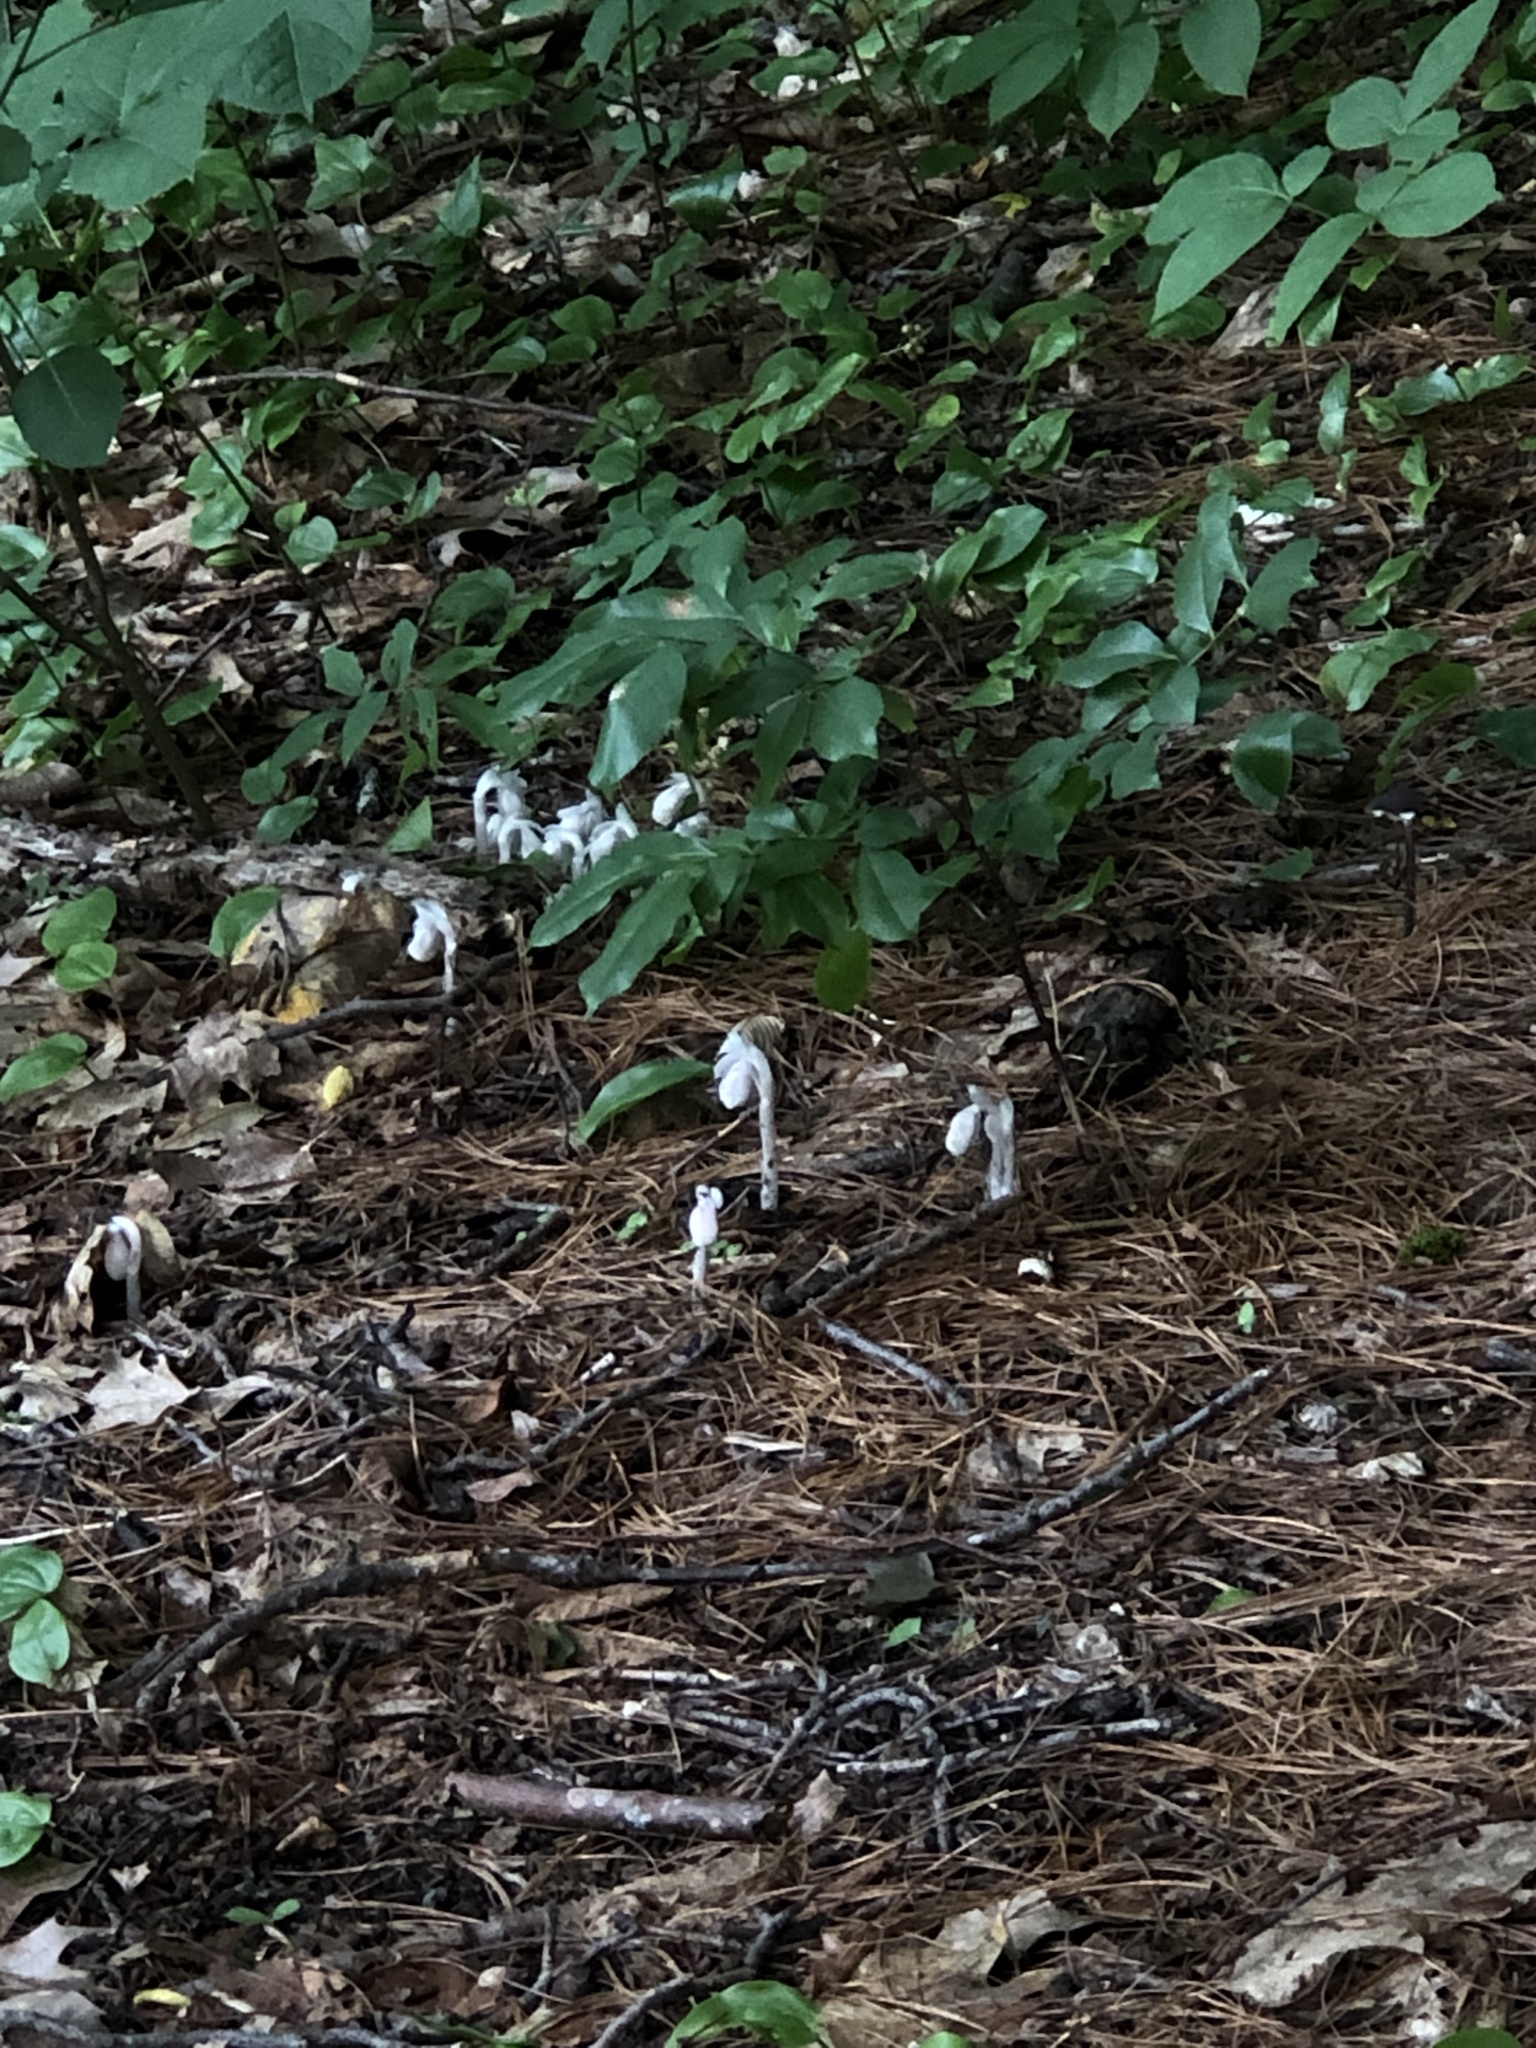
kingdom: Plantae
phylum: Tracheophyta
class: Magnoliopsida
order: Ericales
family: Ericaceae
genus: Monotropa
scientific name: Monotropa uniflora
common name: Convulsion root
